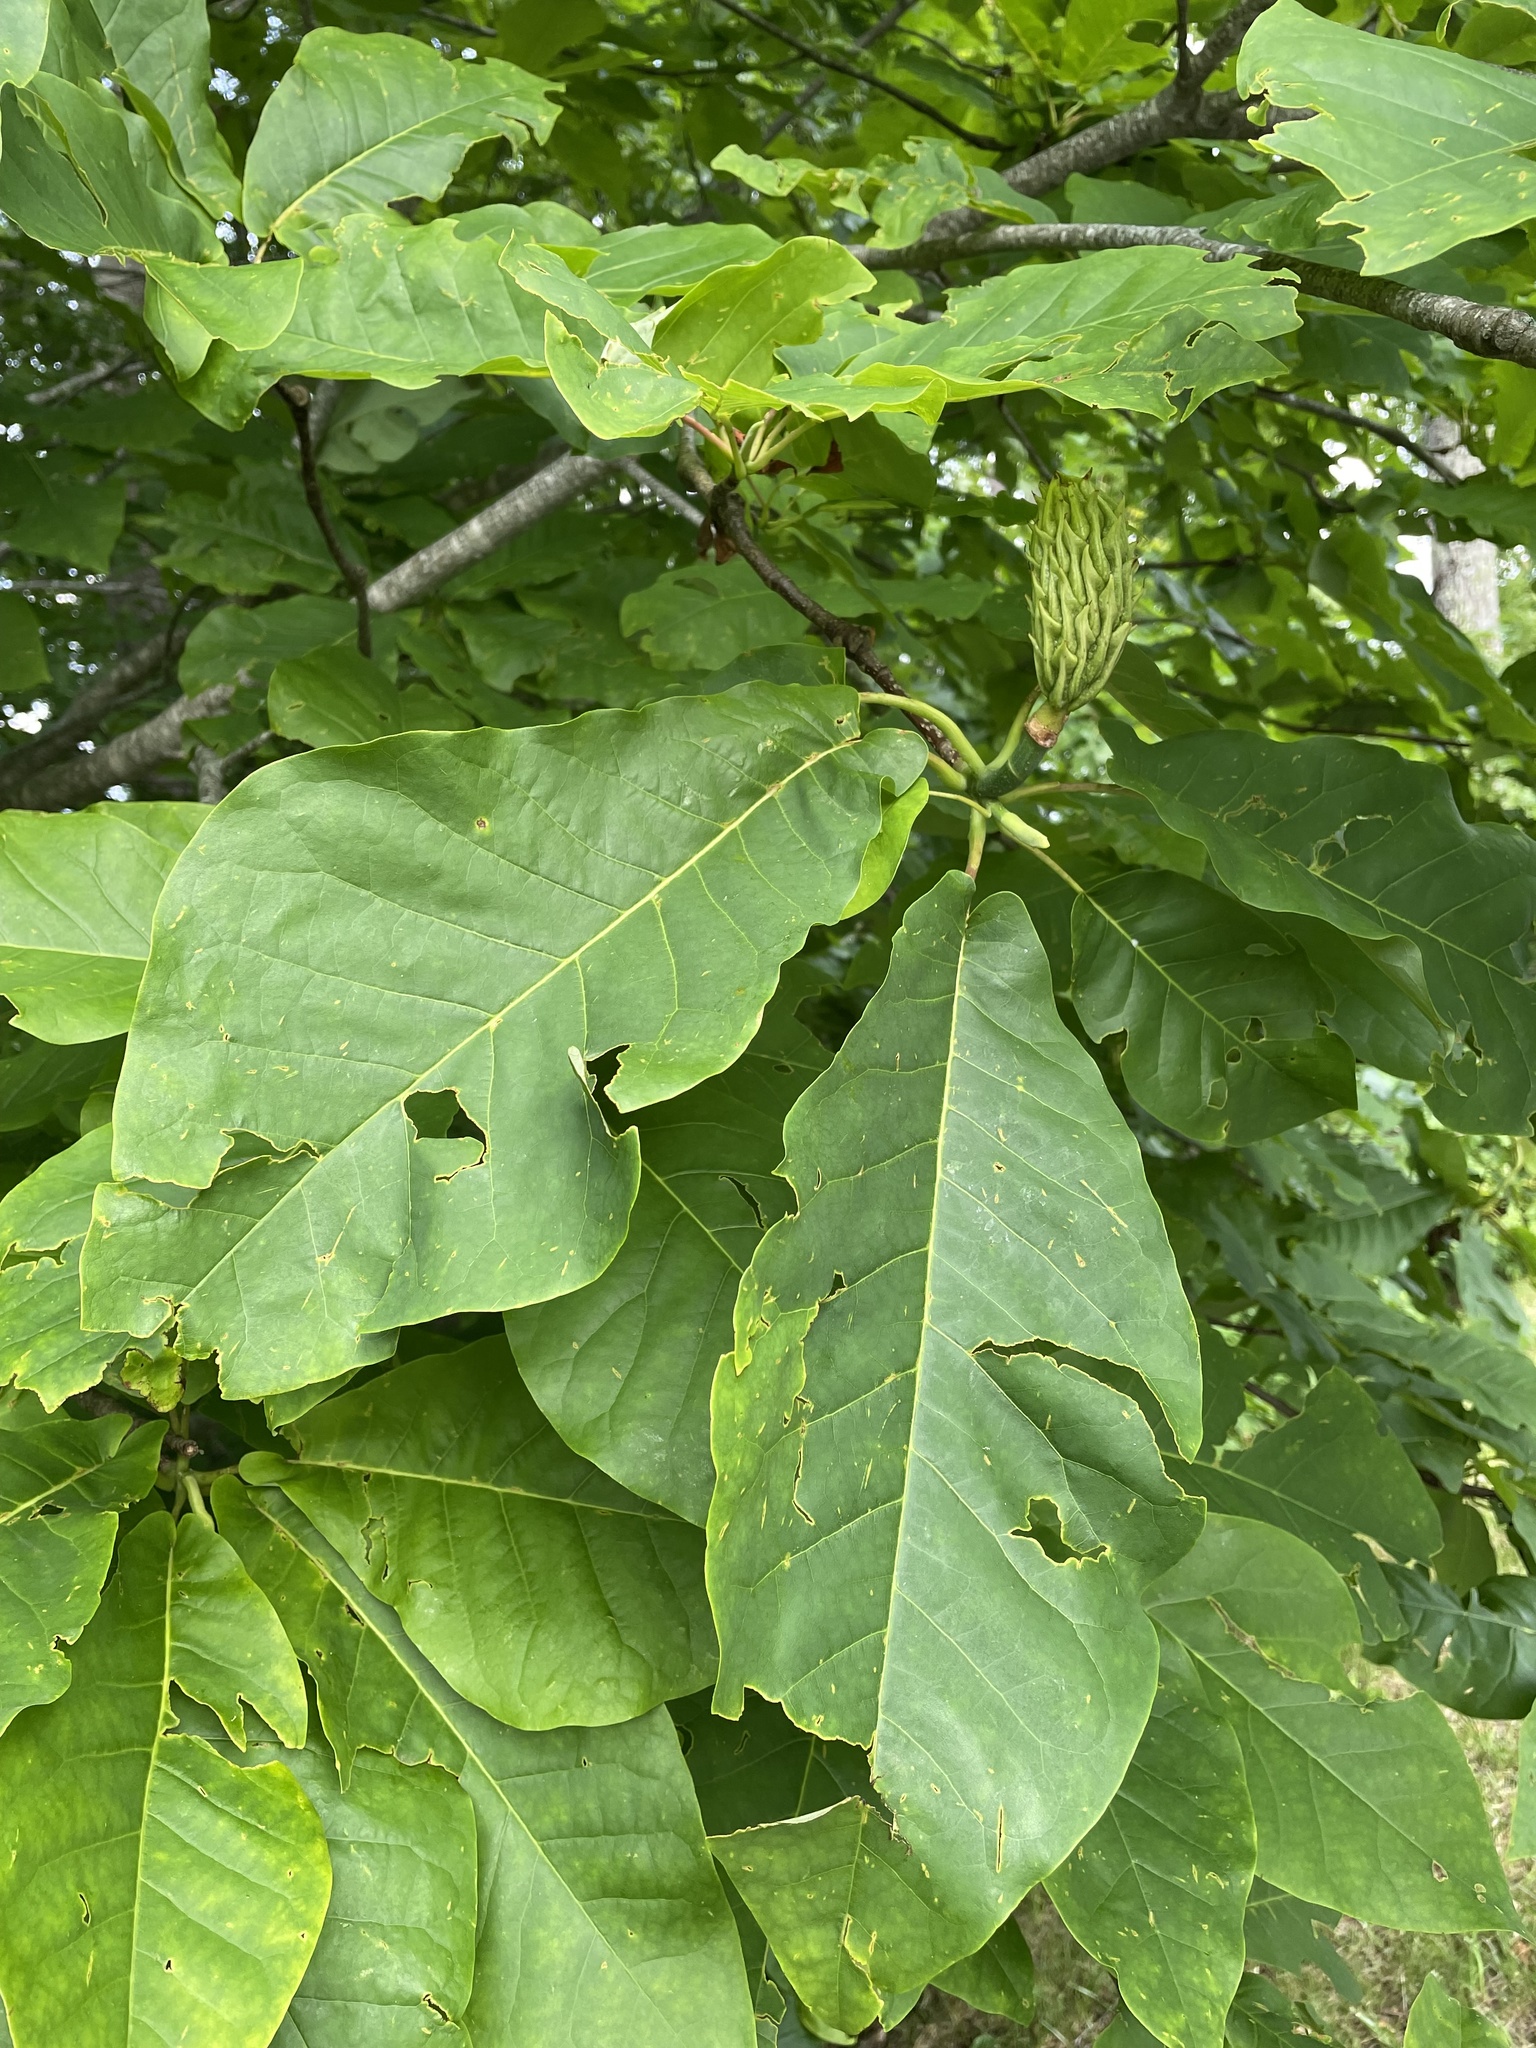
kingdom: Plantae
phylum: Tracheophyta
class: Magnoliopsida
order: Magnoliales
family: Magnoliaceae
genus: Magnolia
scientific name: Magnolia fraseri
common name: Fraser's magnolia
